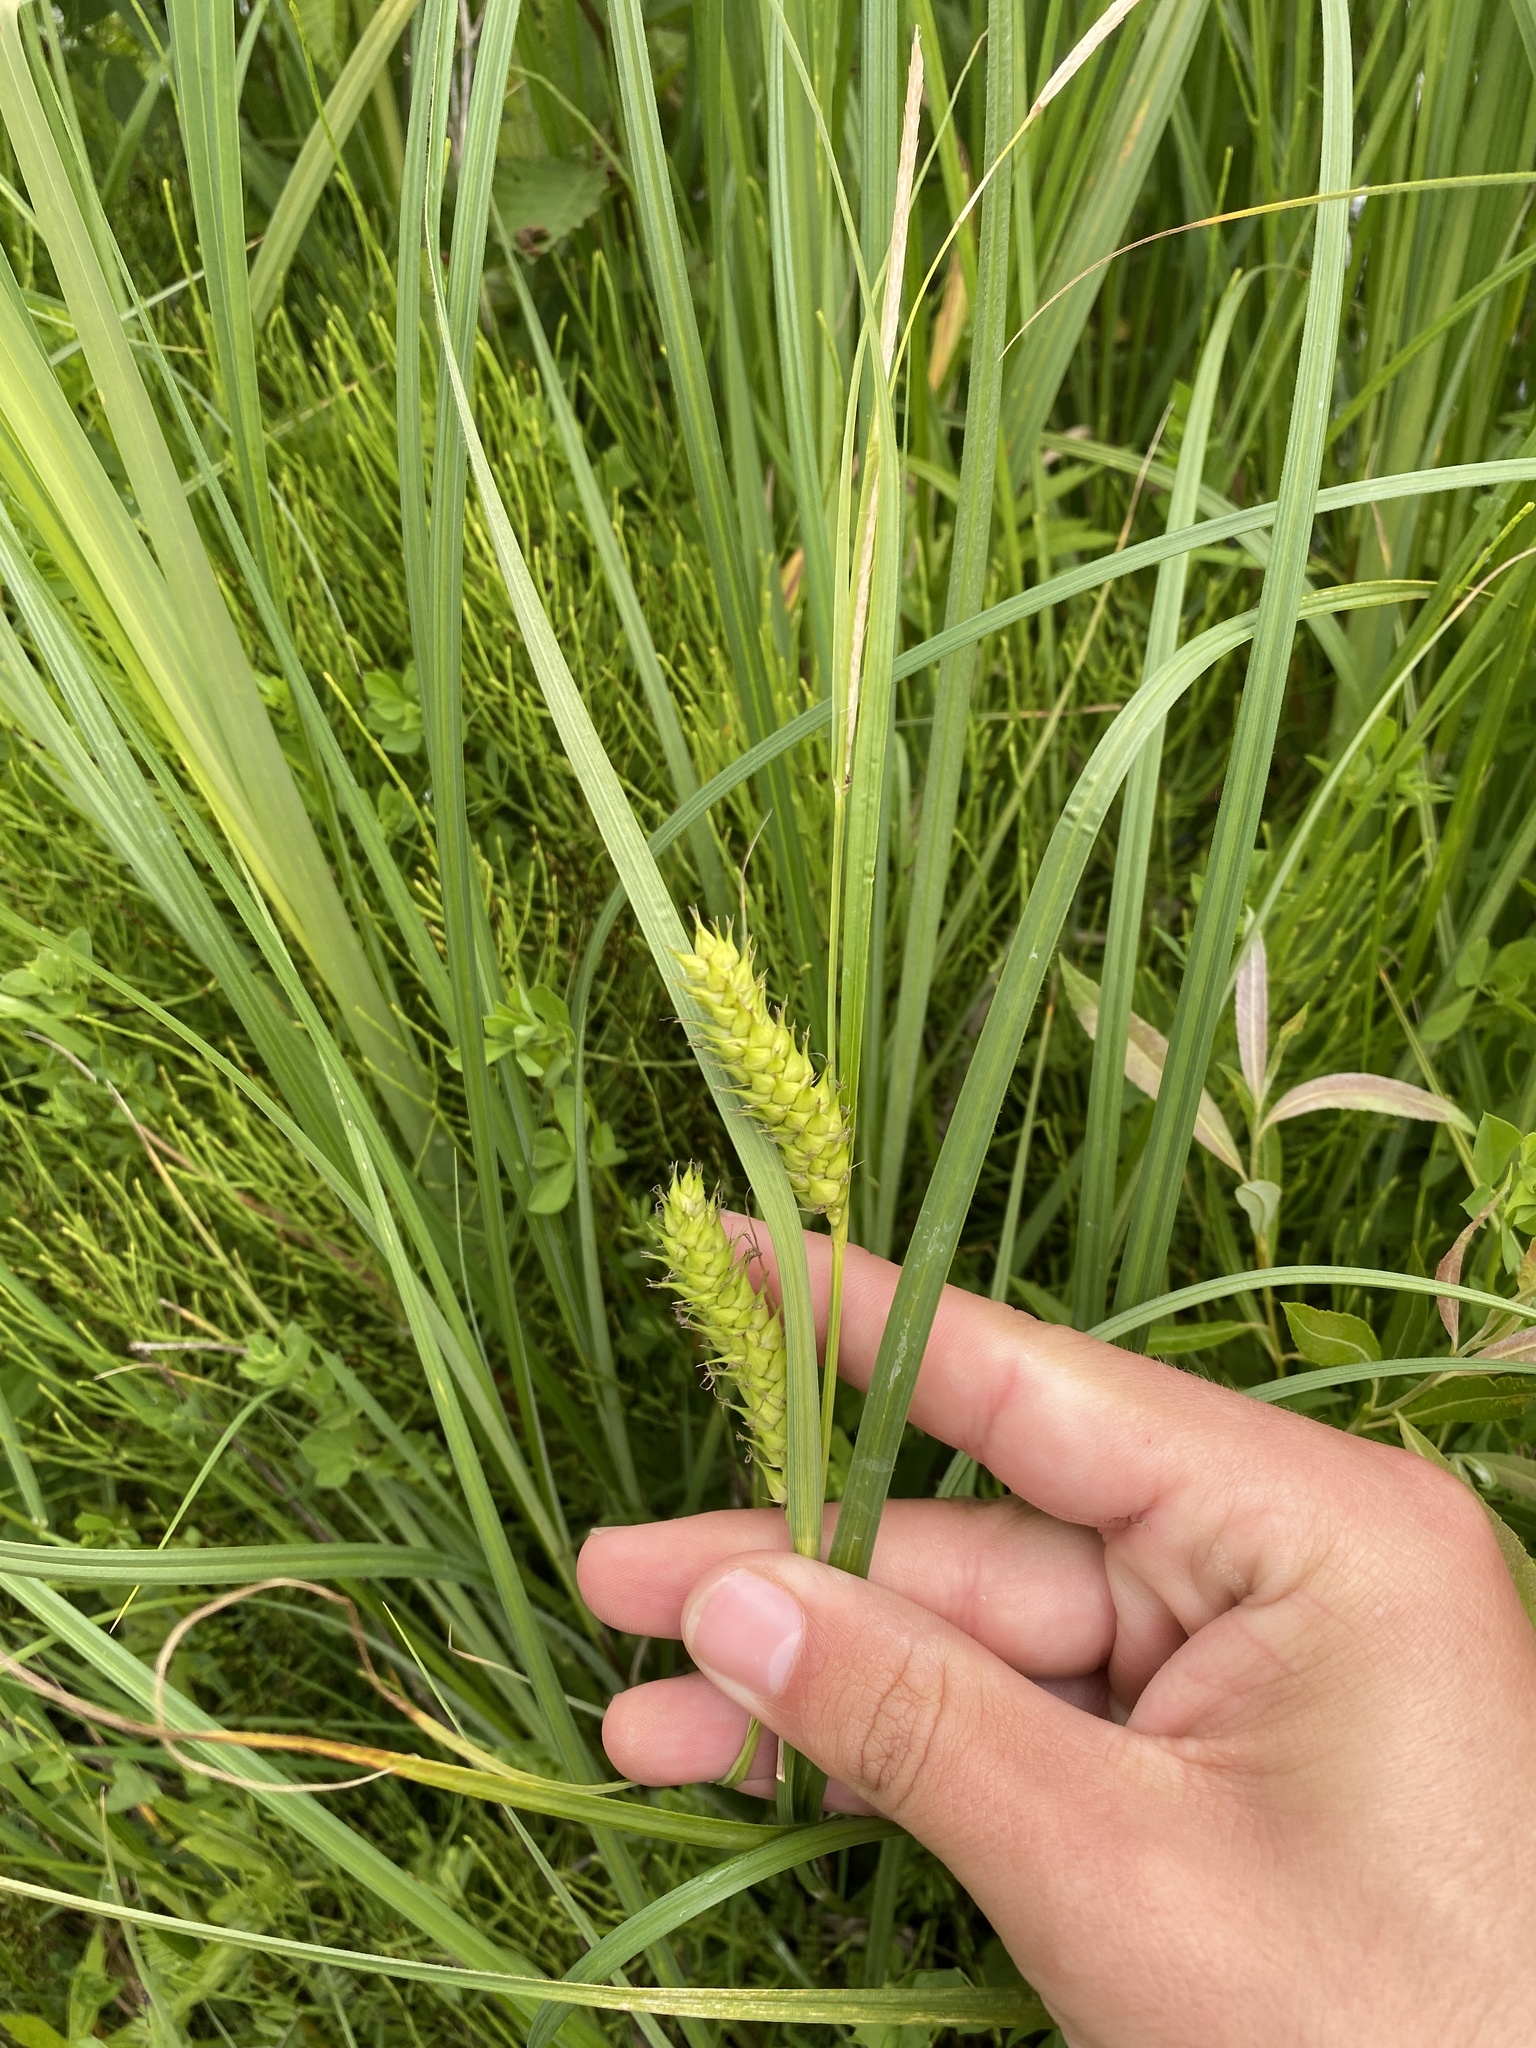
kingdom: Plantae
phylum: Tracheophyta
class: Liliopsida
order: Poales
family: Cyperaceae
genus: Carex
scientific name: Carex atherodes
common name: Wheat sedge
